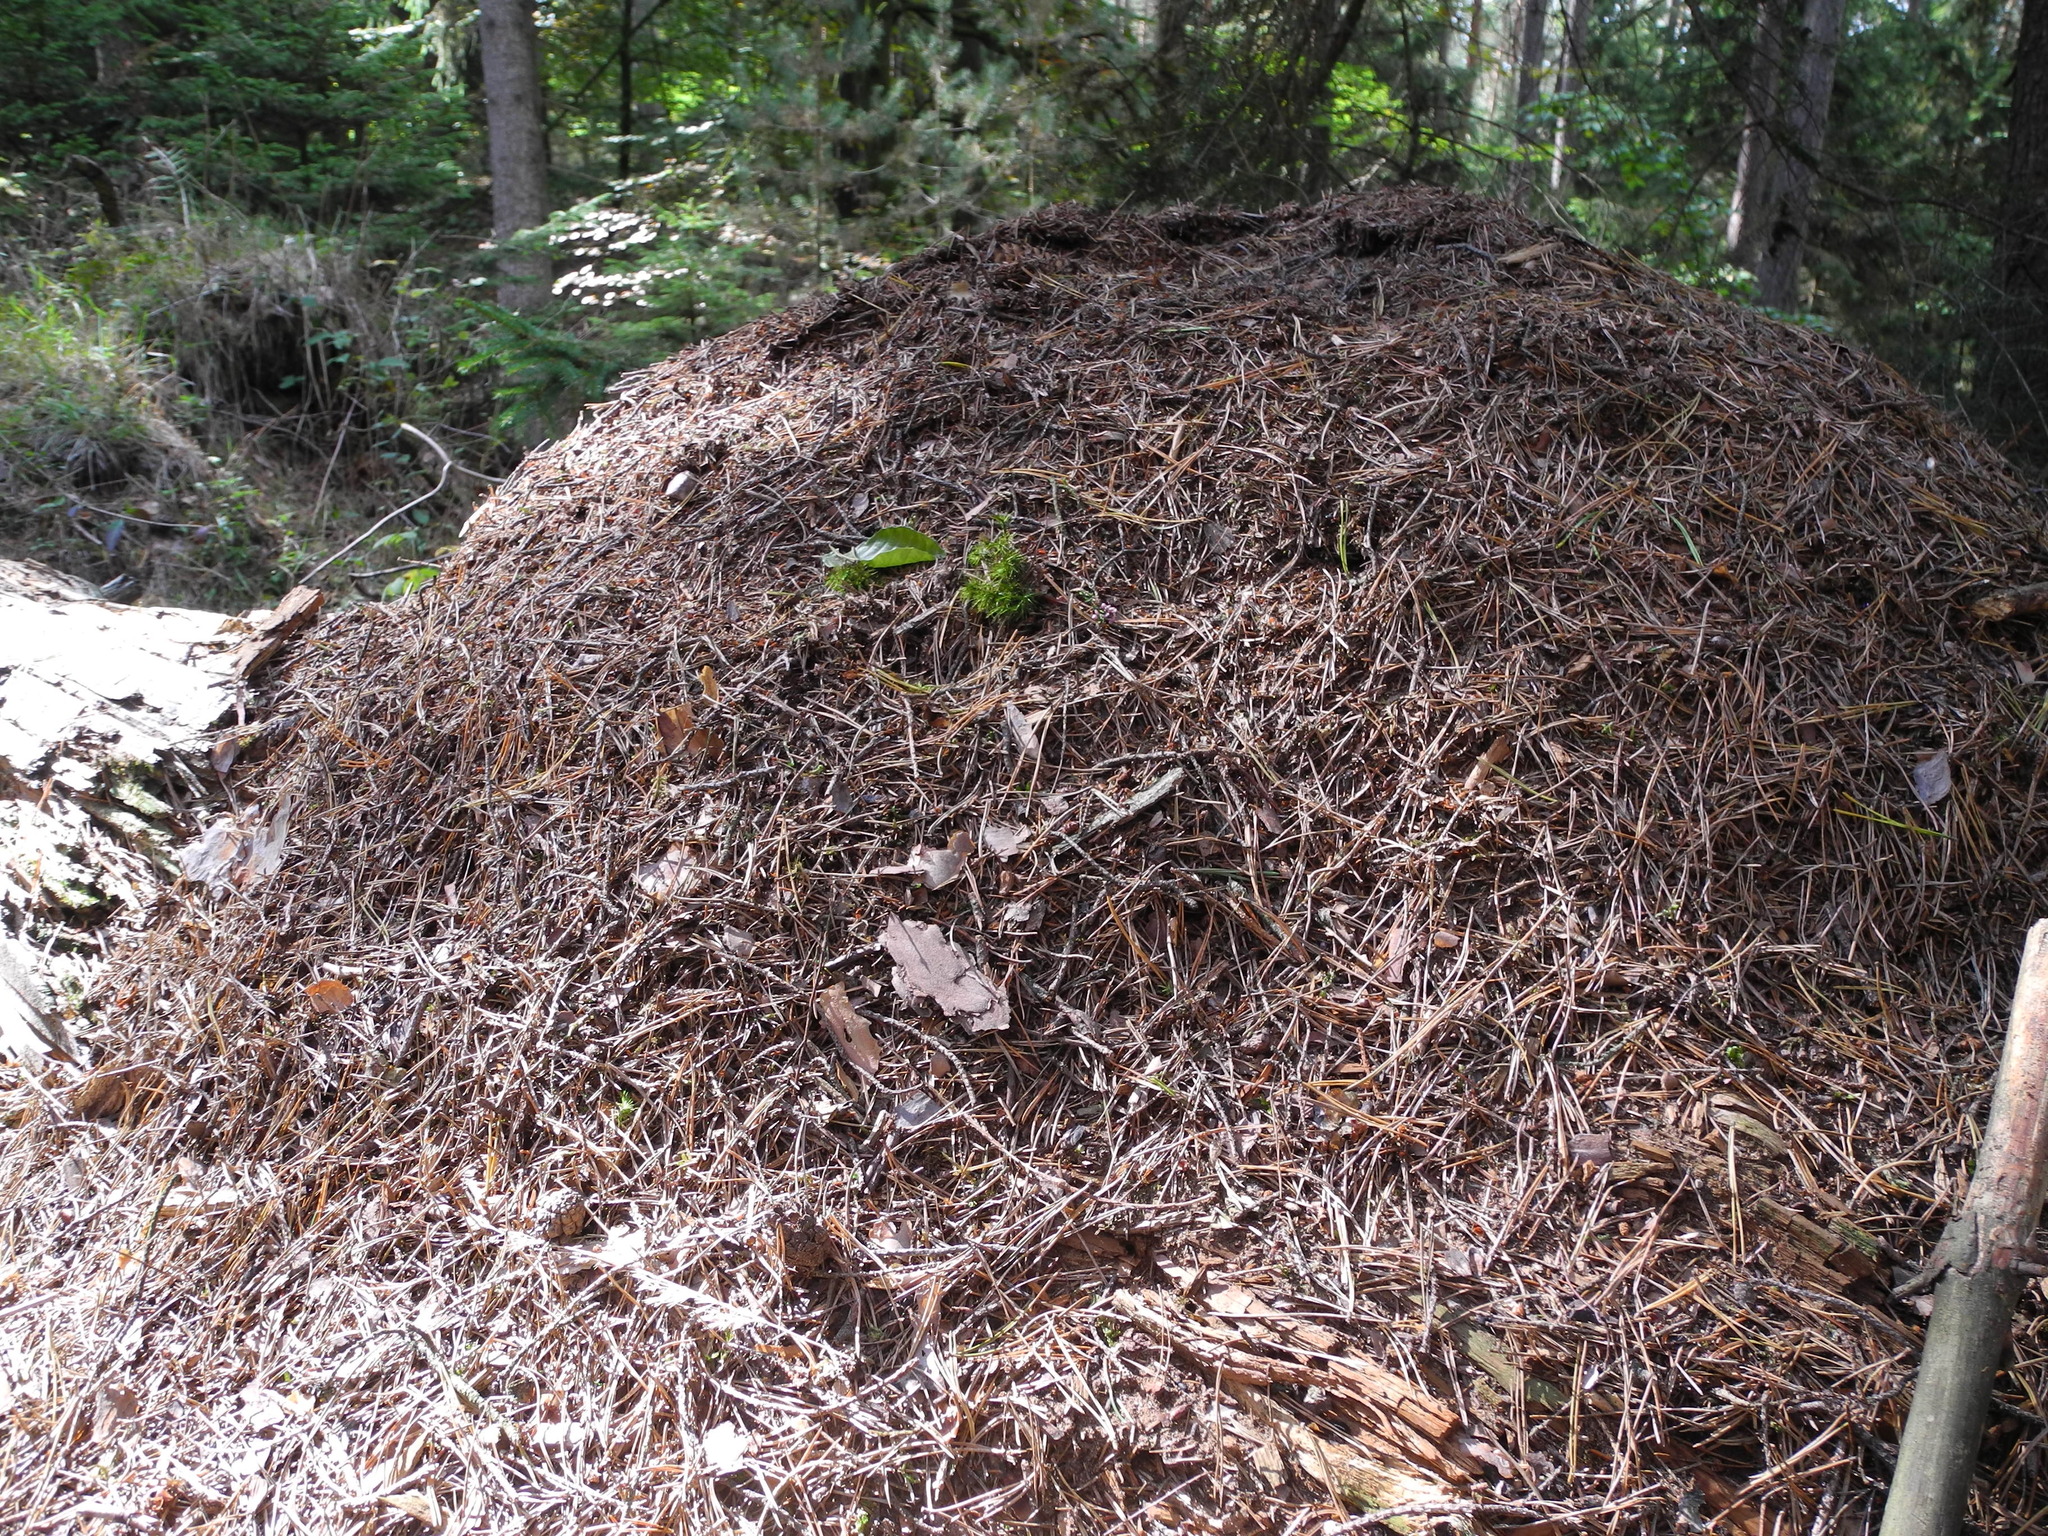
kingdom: Animalia
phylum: Arthropoda
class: Insecta
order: Hymenoptera
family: Formicidae
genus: Formica
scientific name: Formica
